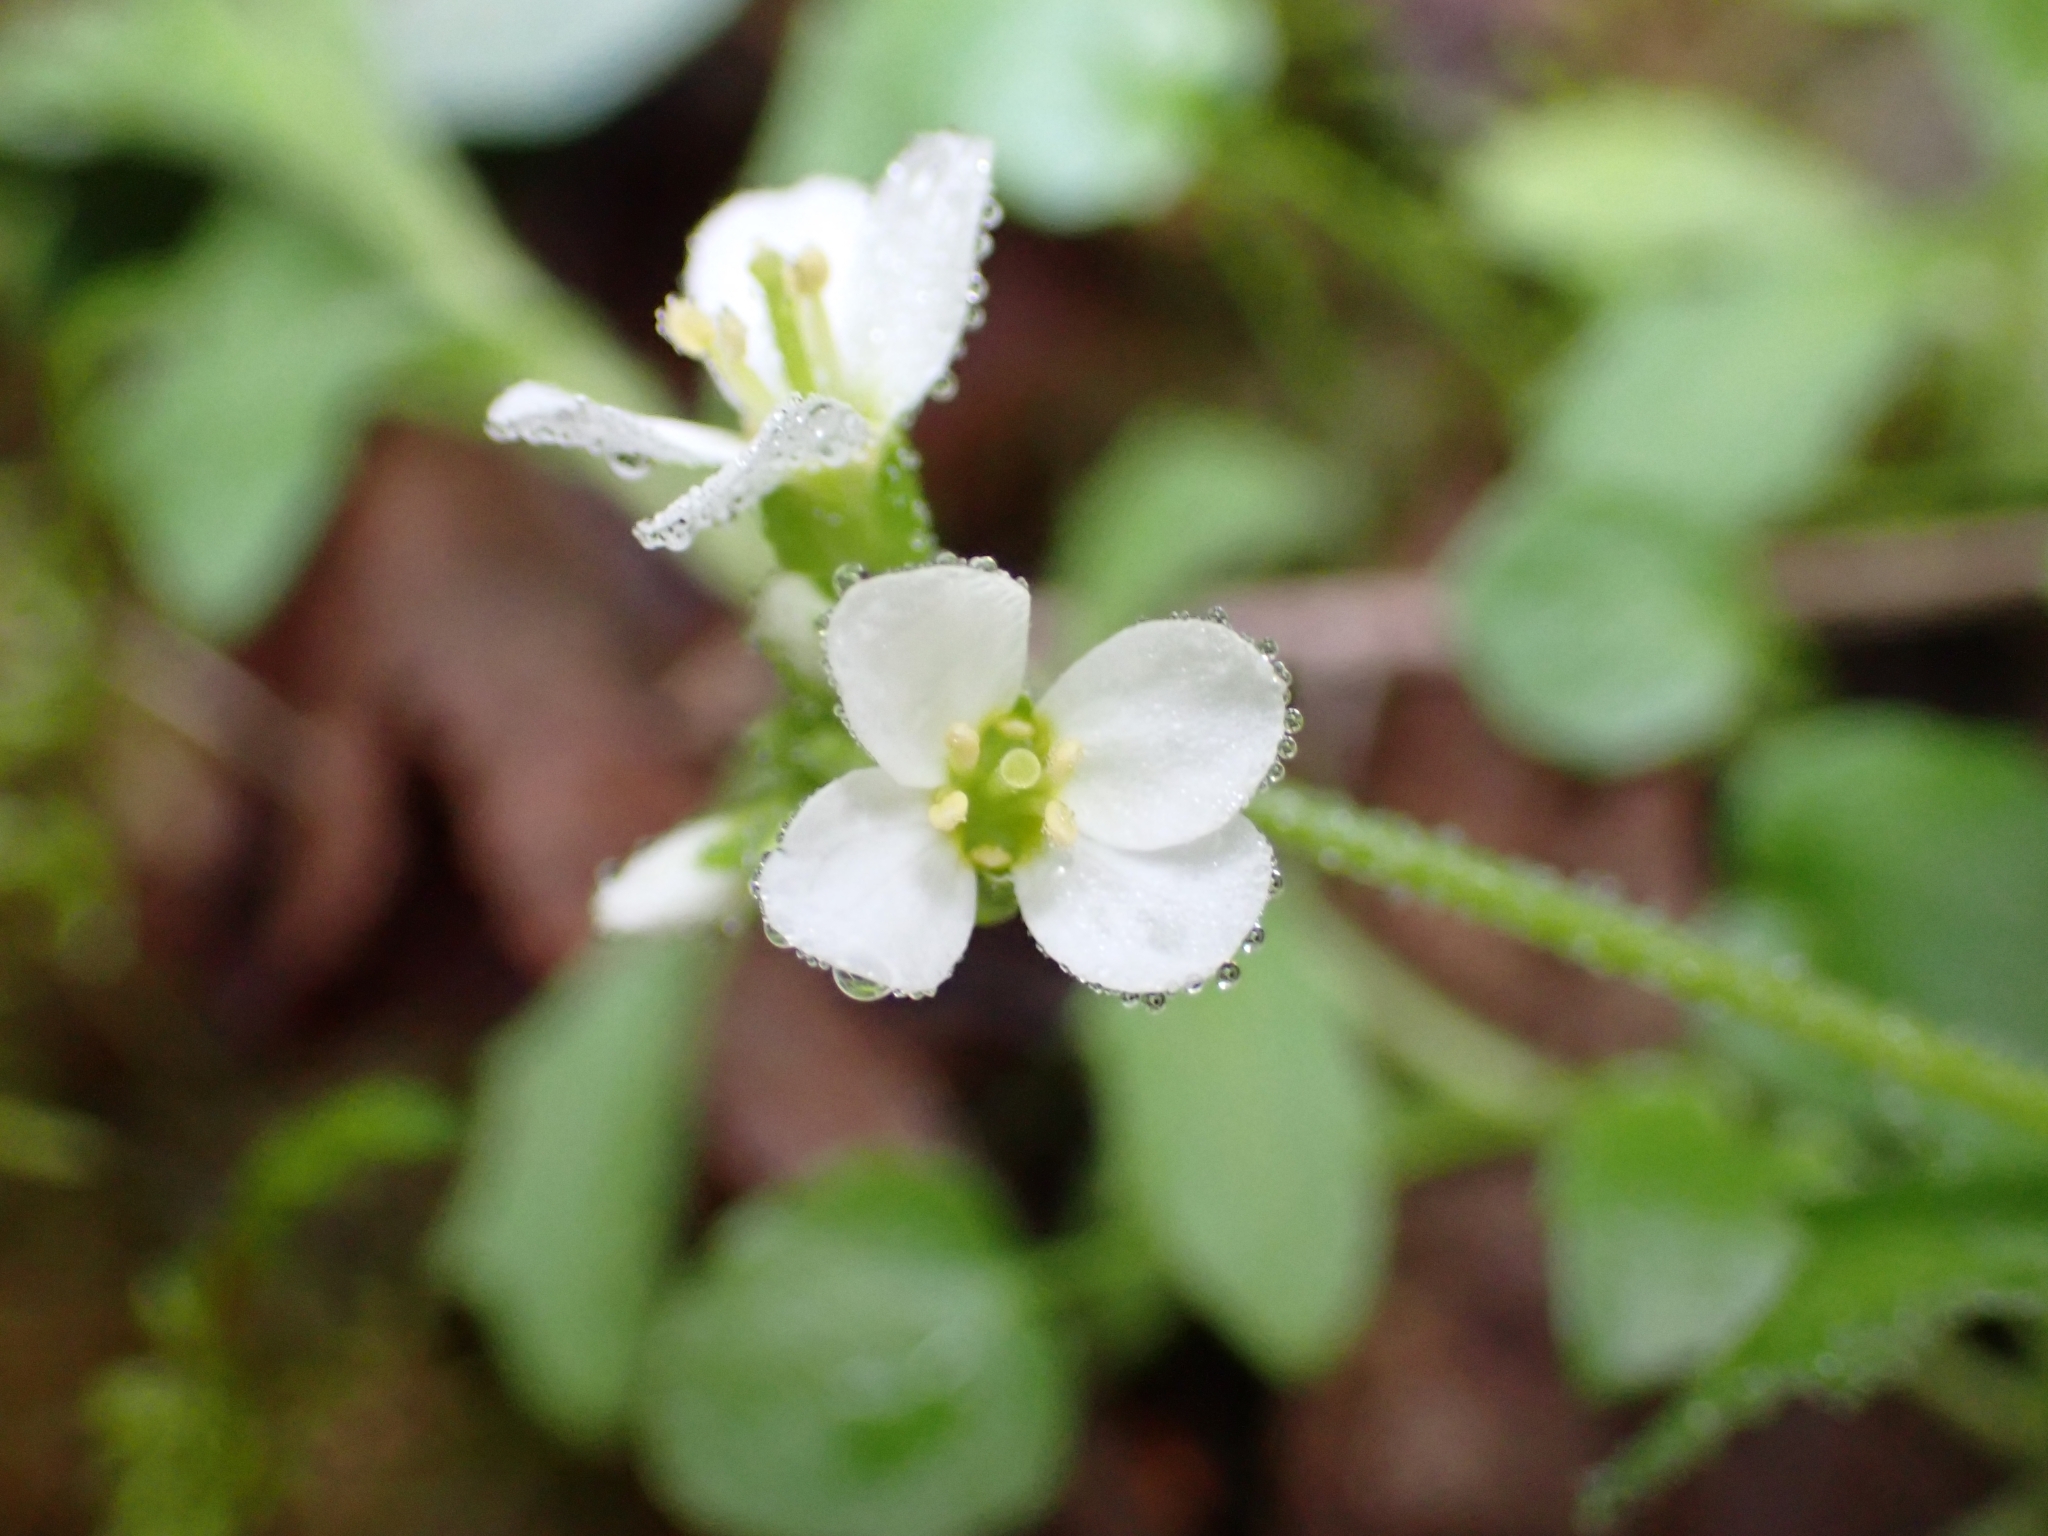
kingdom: Plantae
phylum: Tracheophyta
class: Magnoliopsida
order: Brassicales
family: Brassicaceae
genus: Arabis
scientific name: Arabis alpina
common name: Alpine rock-cress
